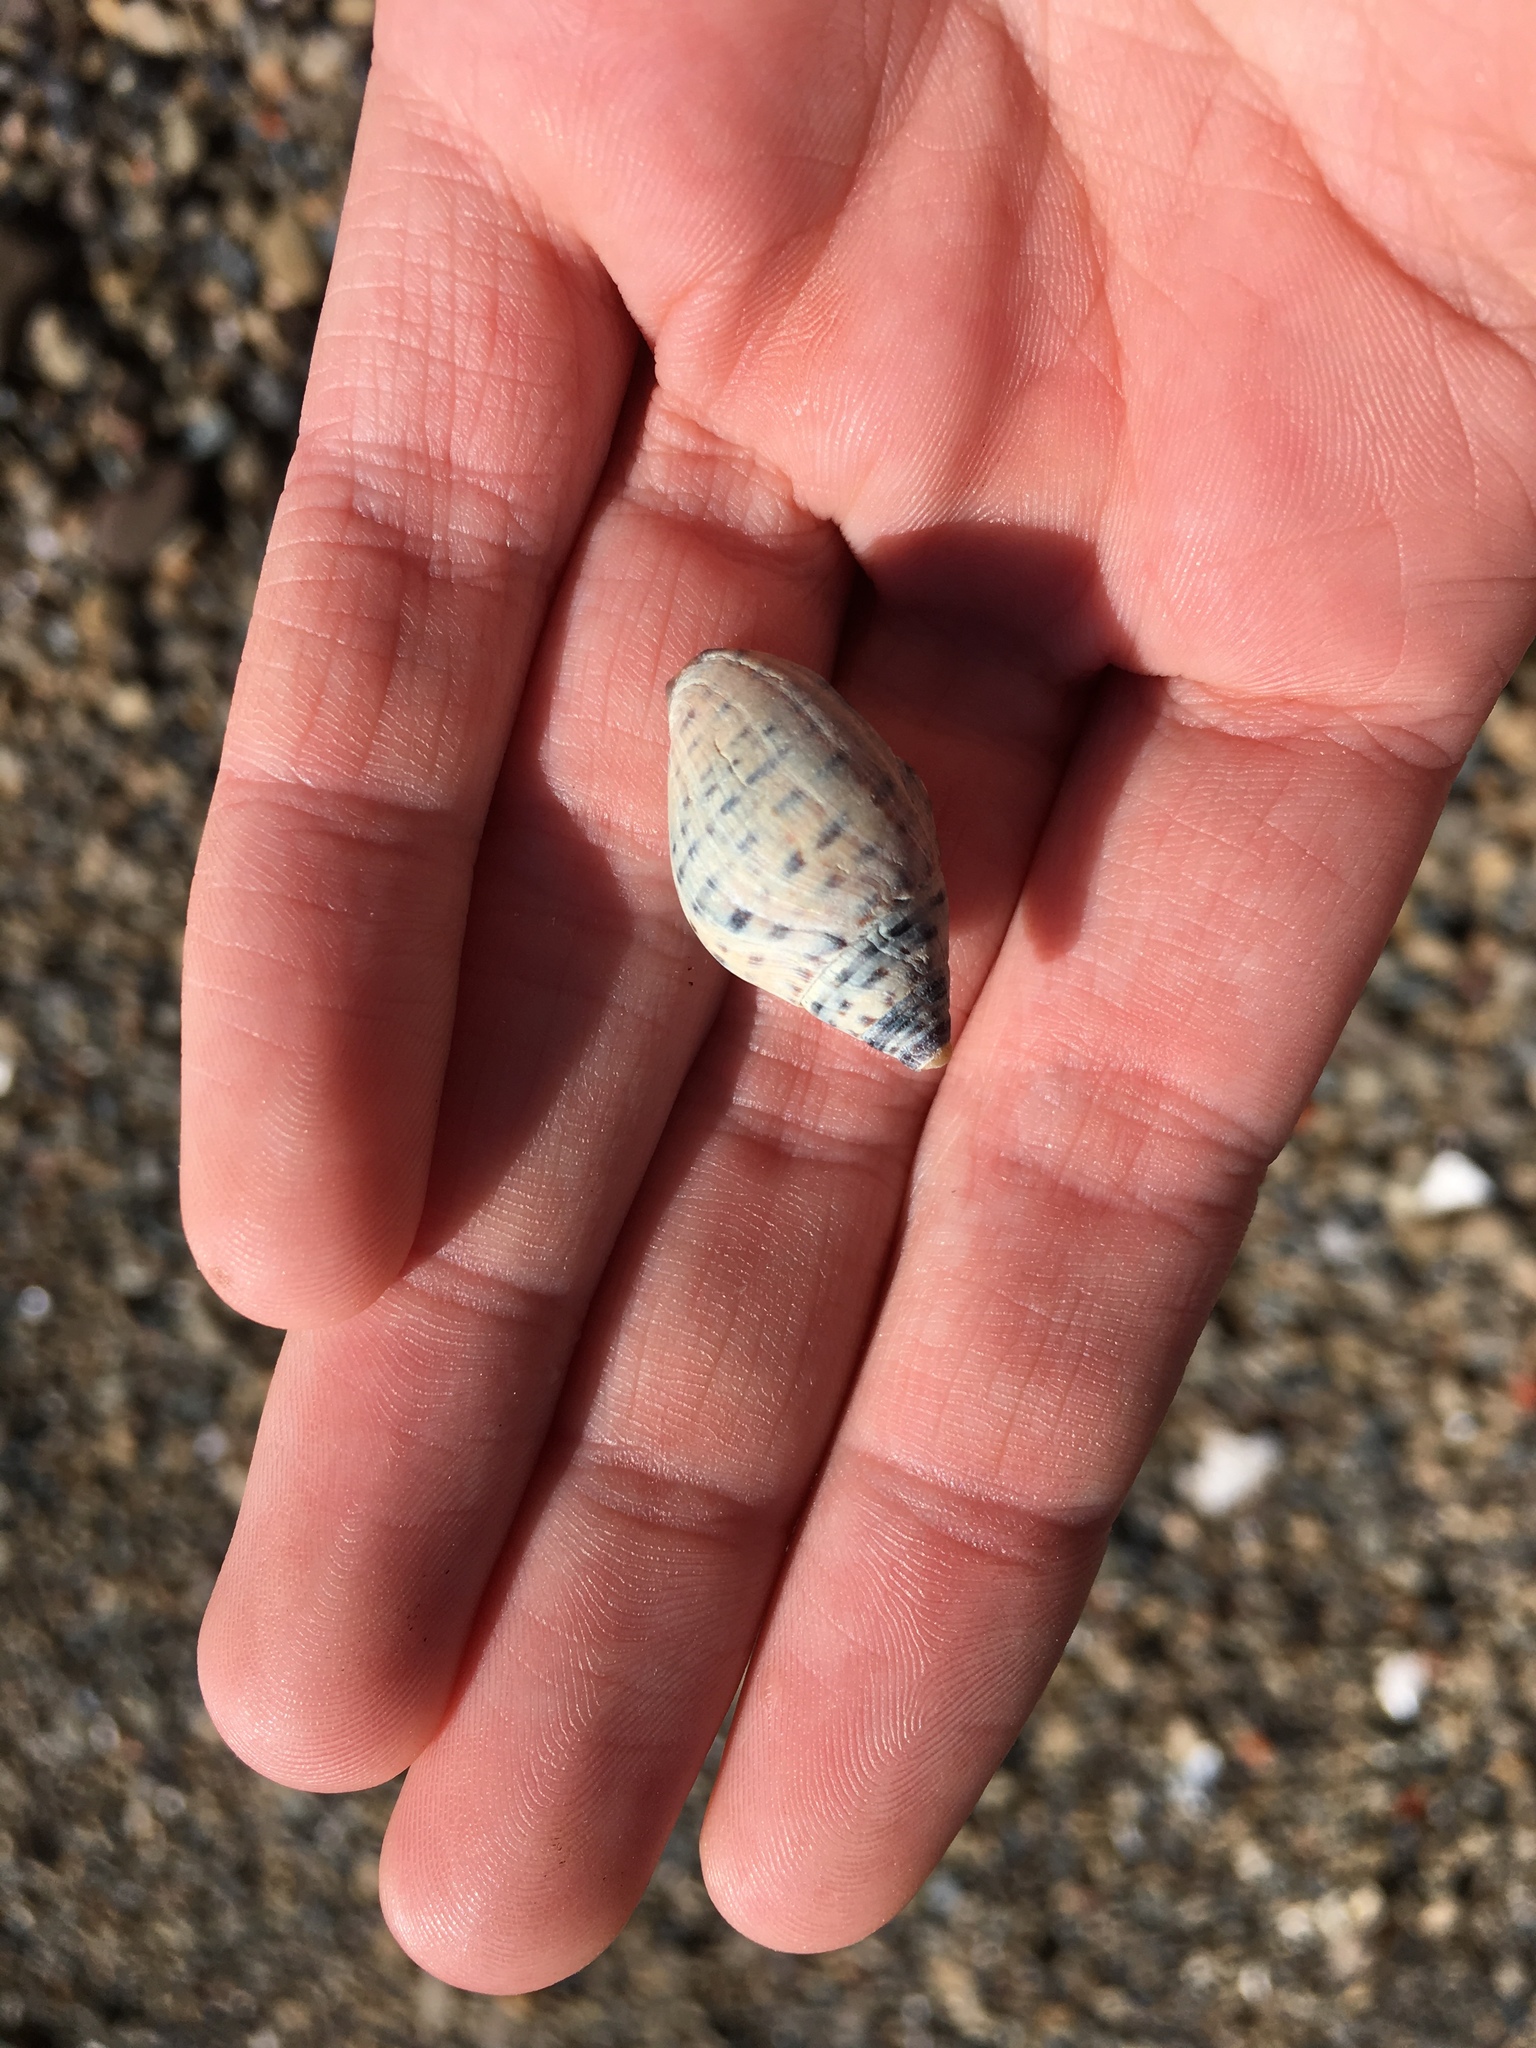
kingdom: Animalia
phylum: Mollusca
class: Gastropoda
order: Neogastropoda
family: Cominellidae
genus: Cominella
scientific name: Cominella maculosa
